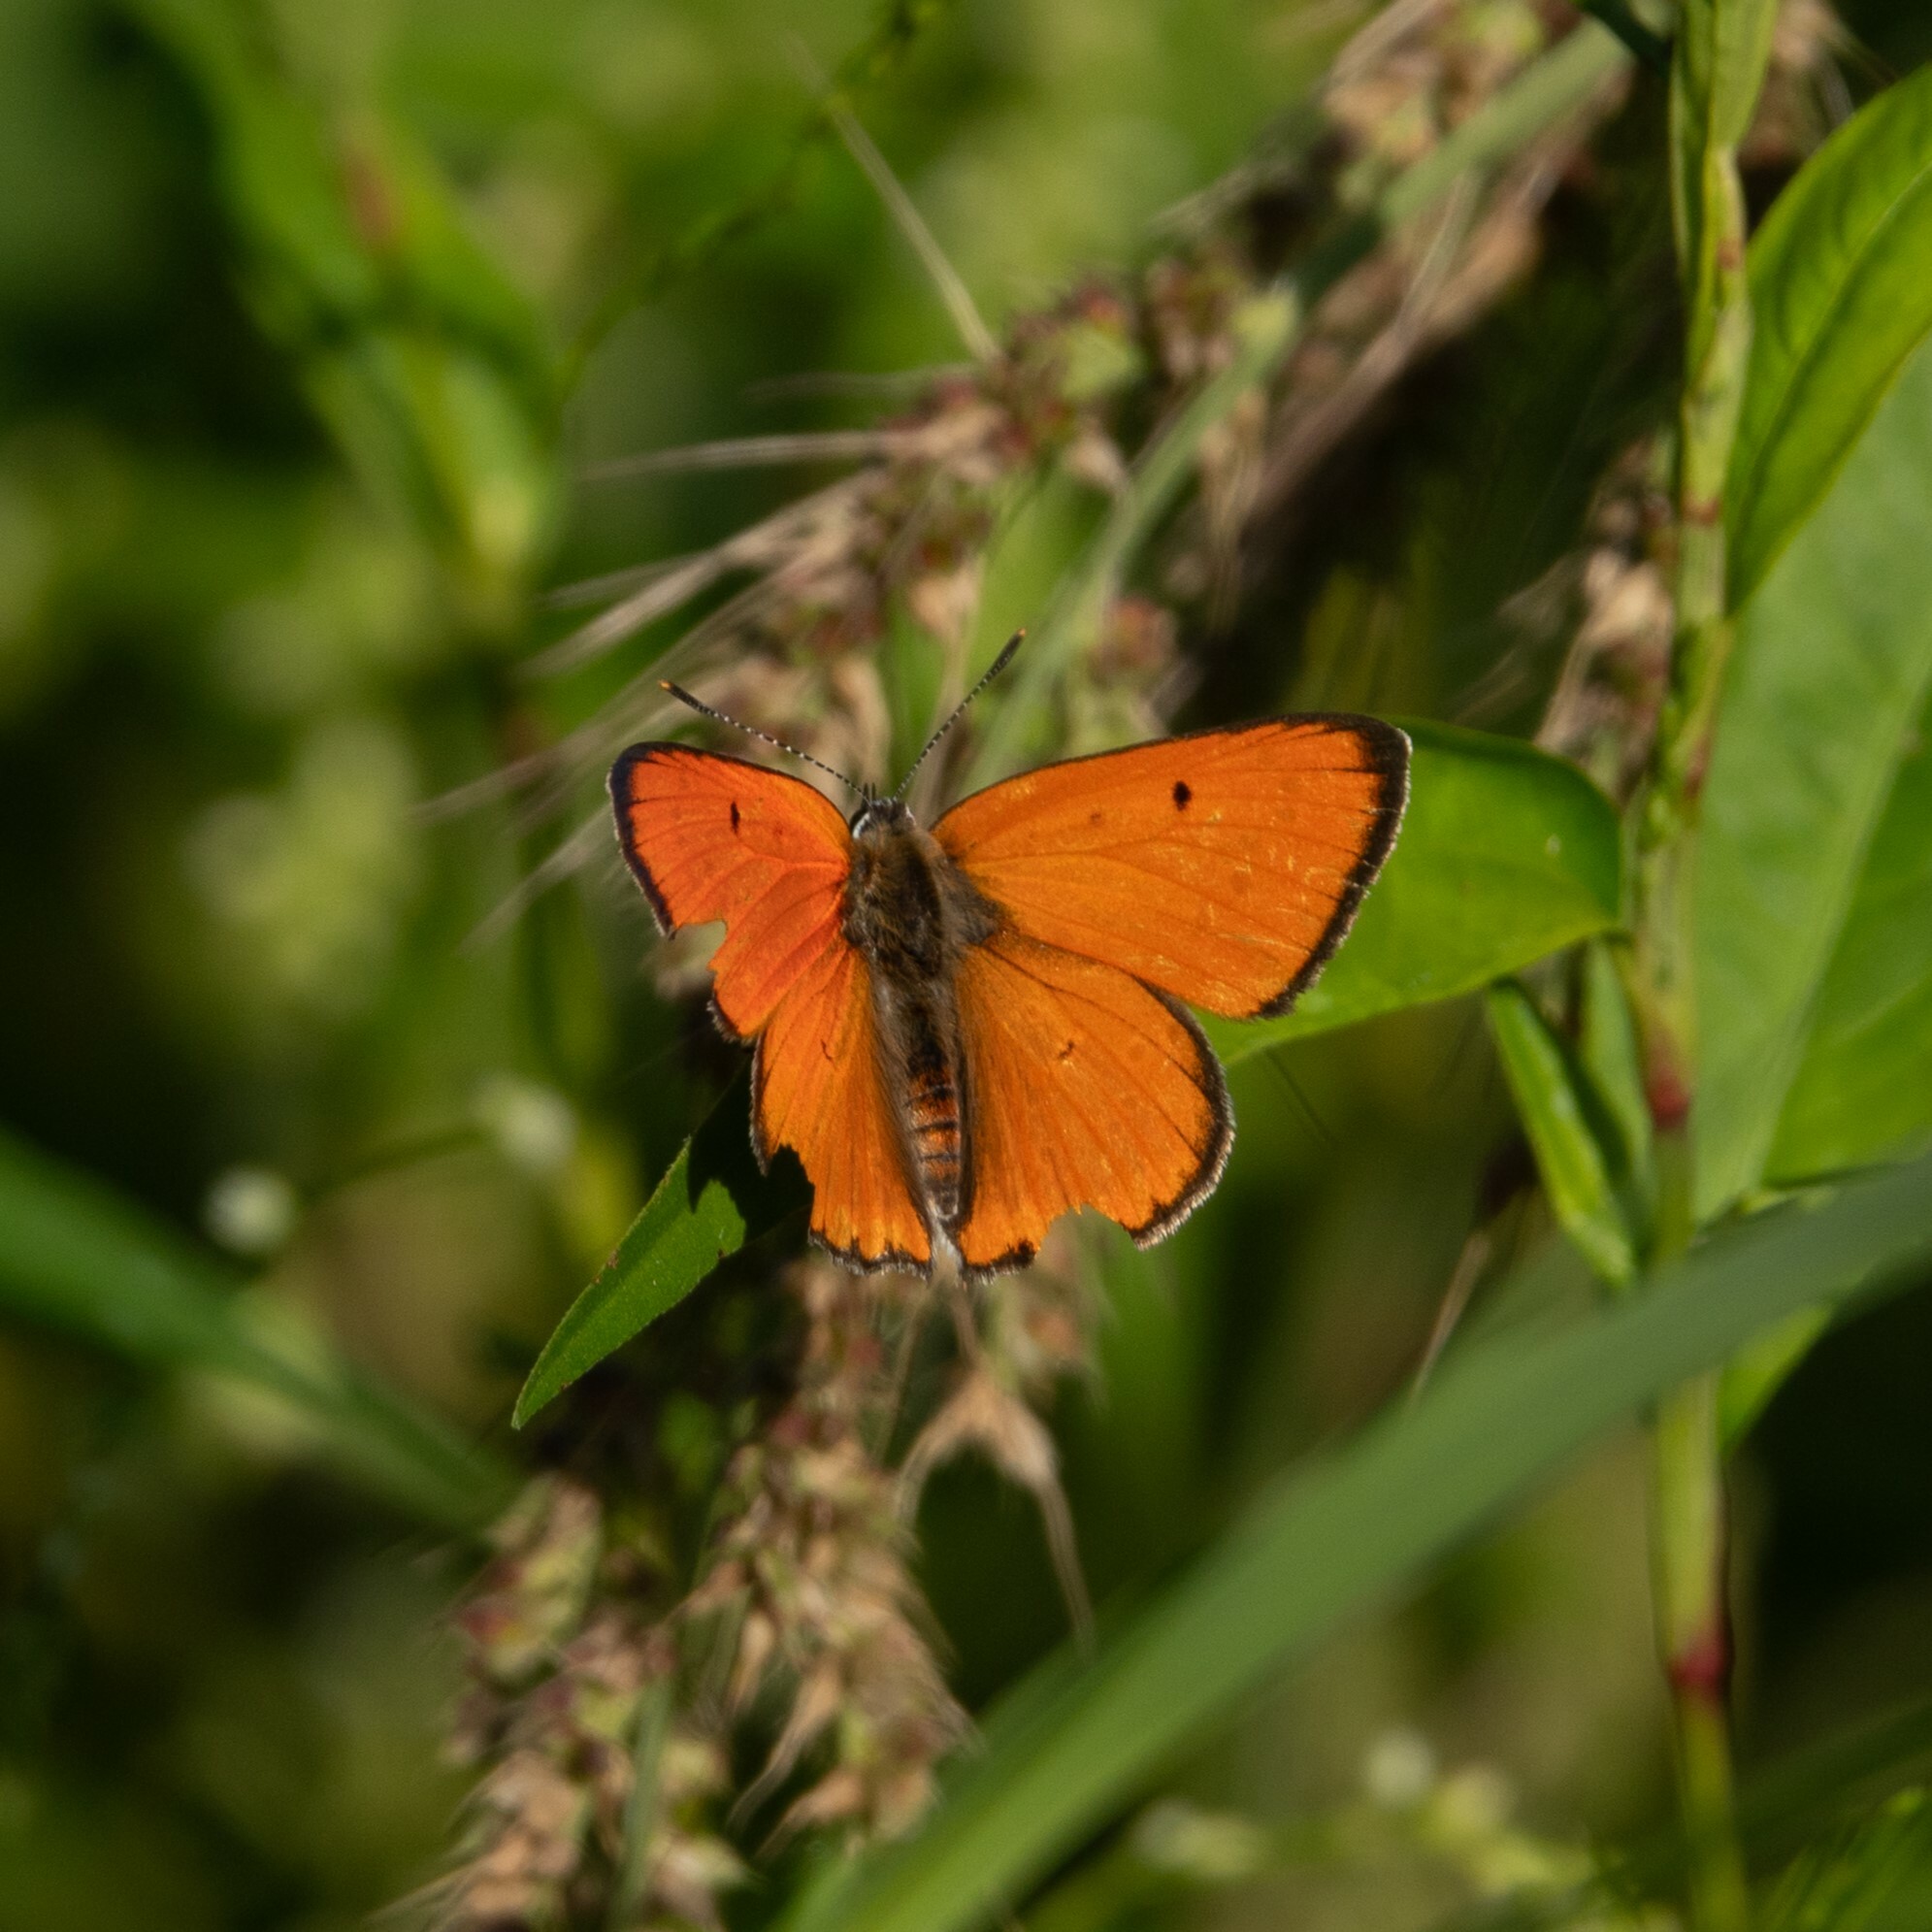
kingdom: Animalia
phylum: Arthropoda
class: Insecta
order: Lepidoptera
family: Lycaenidae
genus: Lycaena
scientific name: Lycaena dispar
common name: Large copper
